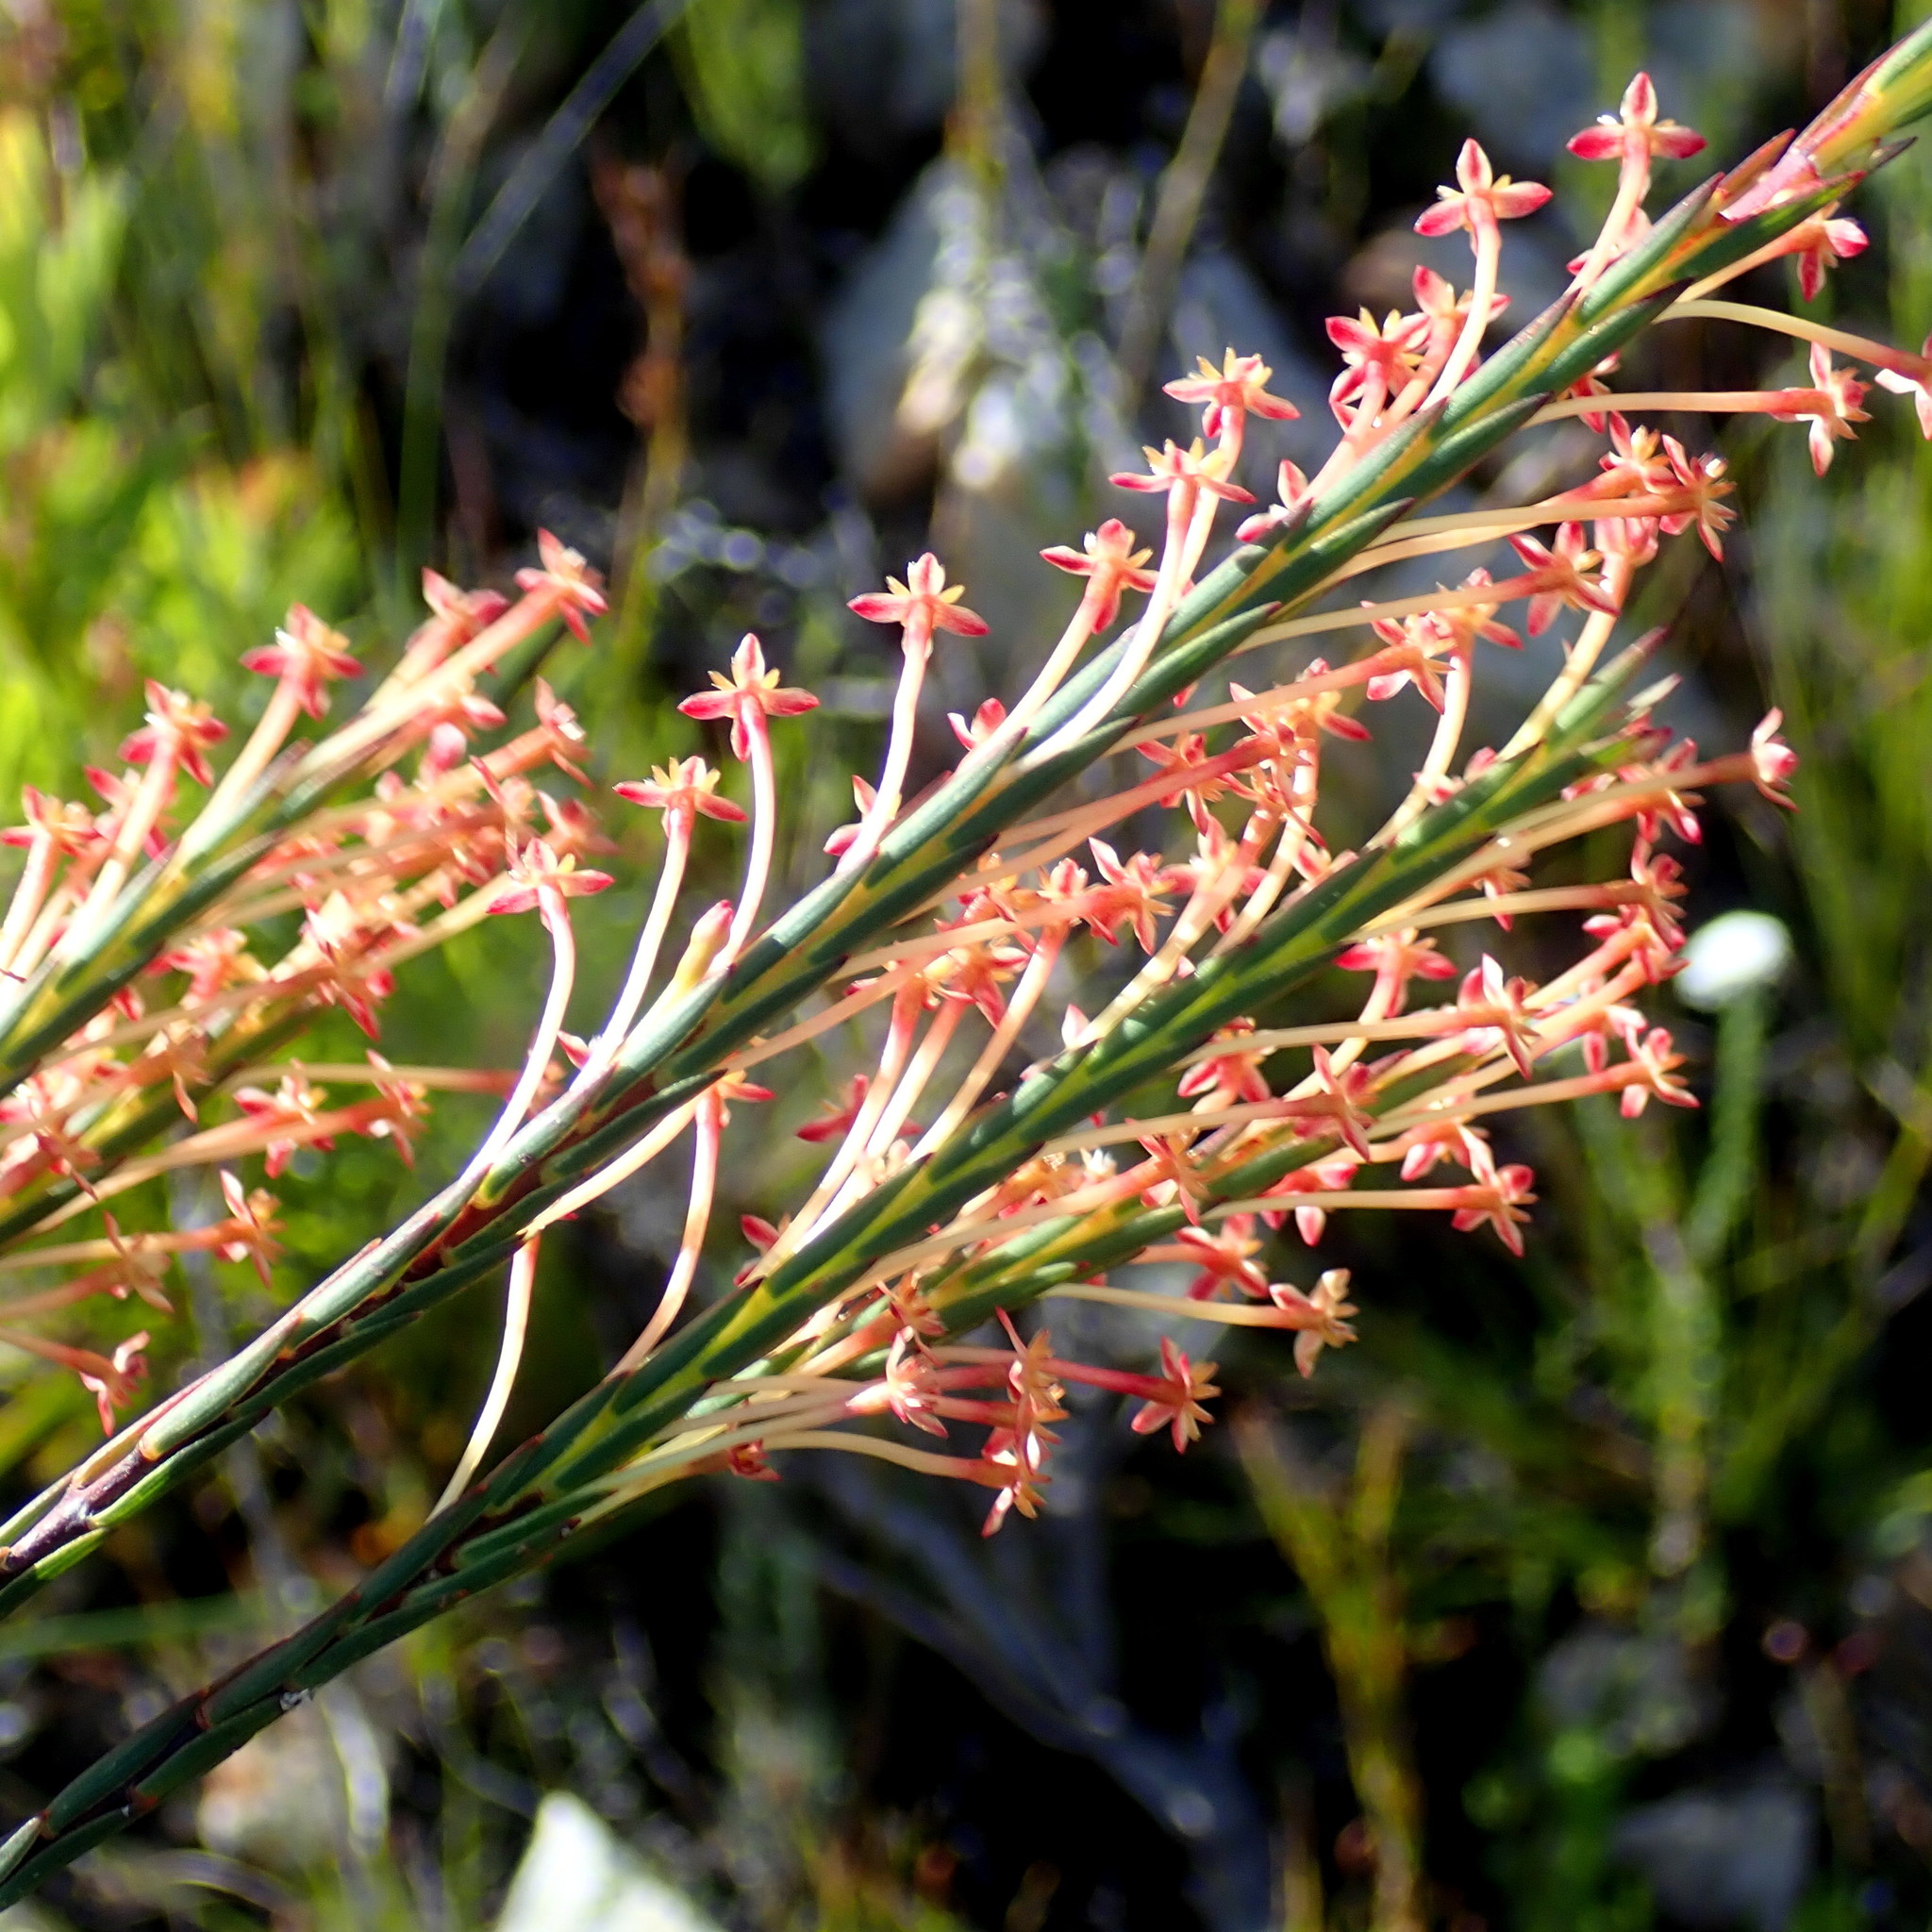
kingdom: Plantae
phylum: Tracheophyta
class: Magnoliopsida
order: Malvales
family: Thymelaeaceae
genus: Struthiola
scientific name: Struthiola macowanii
